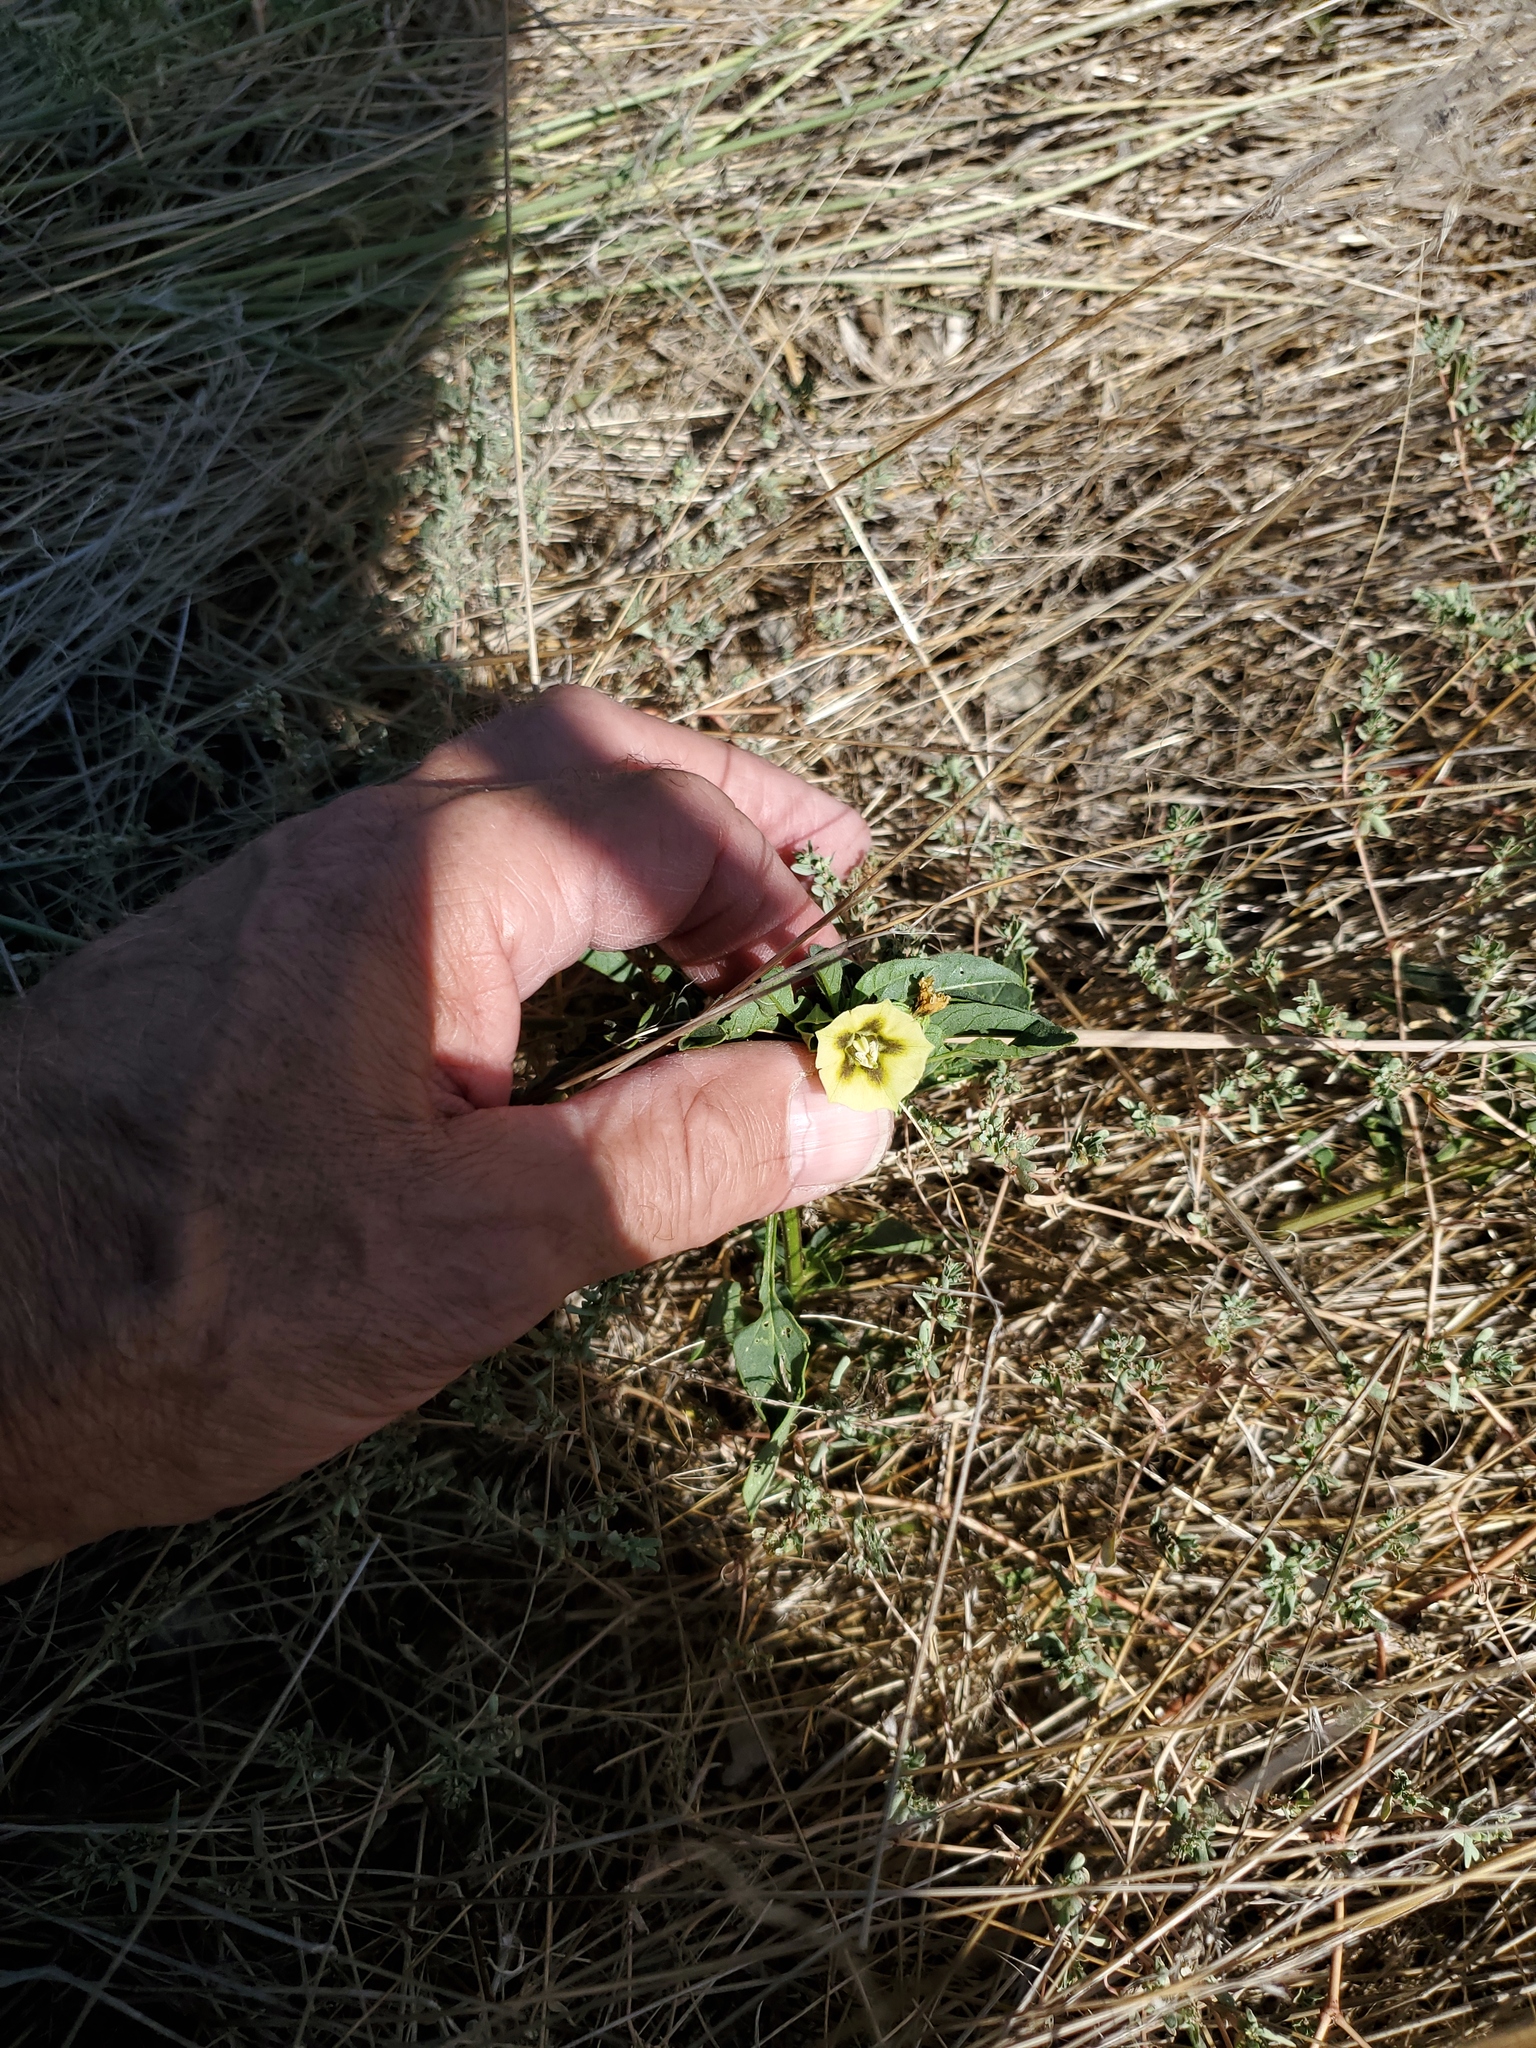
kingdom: Plantae
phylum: Tracheophyta
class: Magnoliopsida
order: Solanales
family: Solanaceae
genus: Physalis
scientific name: Physalis longifolia
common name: Common ground-cherry
